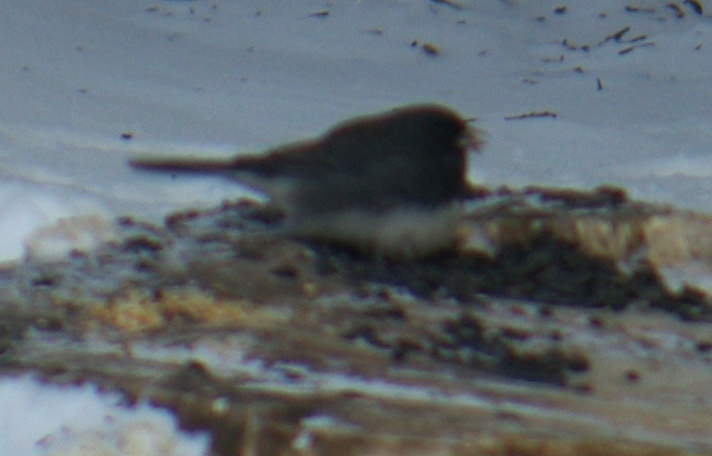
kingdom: Animalia
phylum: Chordata
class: Aves
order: Passeriformes
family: Passerellidae
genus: Junco
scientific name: Junco hyemalis
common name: Dark-eyed junco
